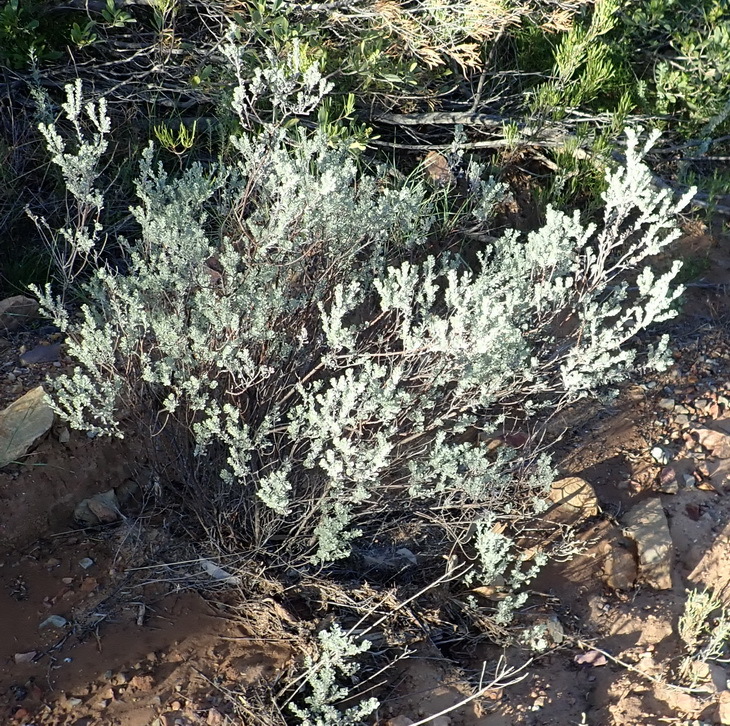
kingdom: Plantae
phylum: Tracheophyta
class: Magnoliopsida
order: Asterales
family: Asteraceae
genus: Pentzia
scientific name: Pentzia dentata
